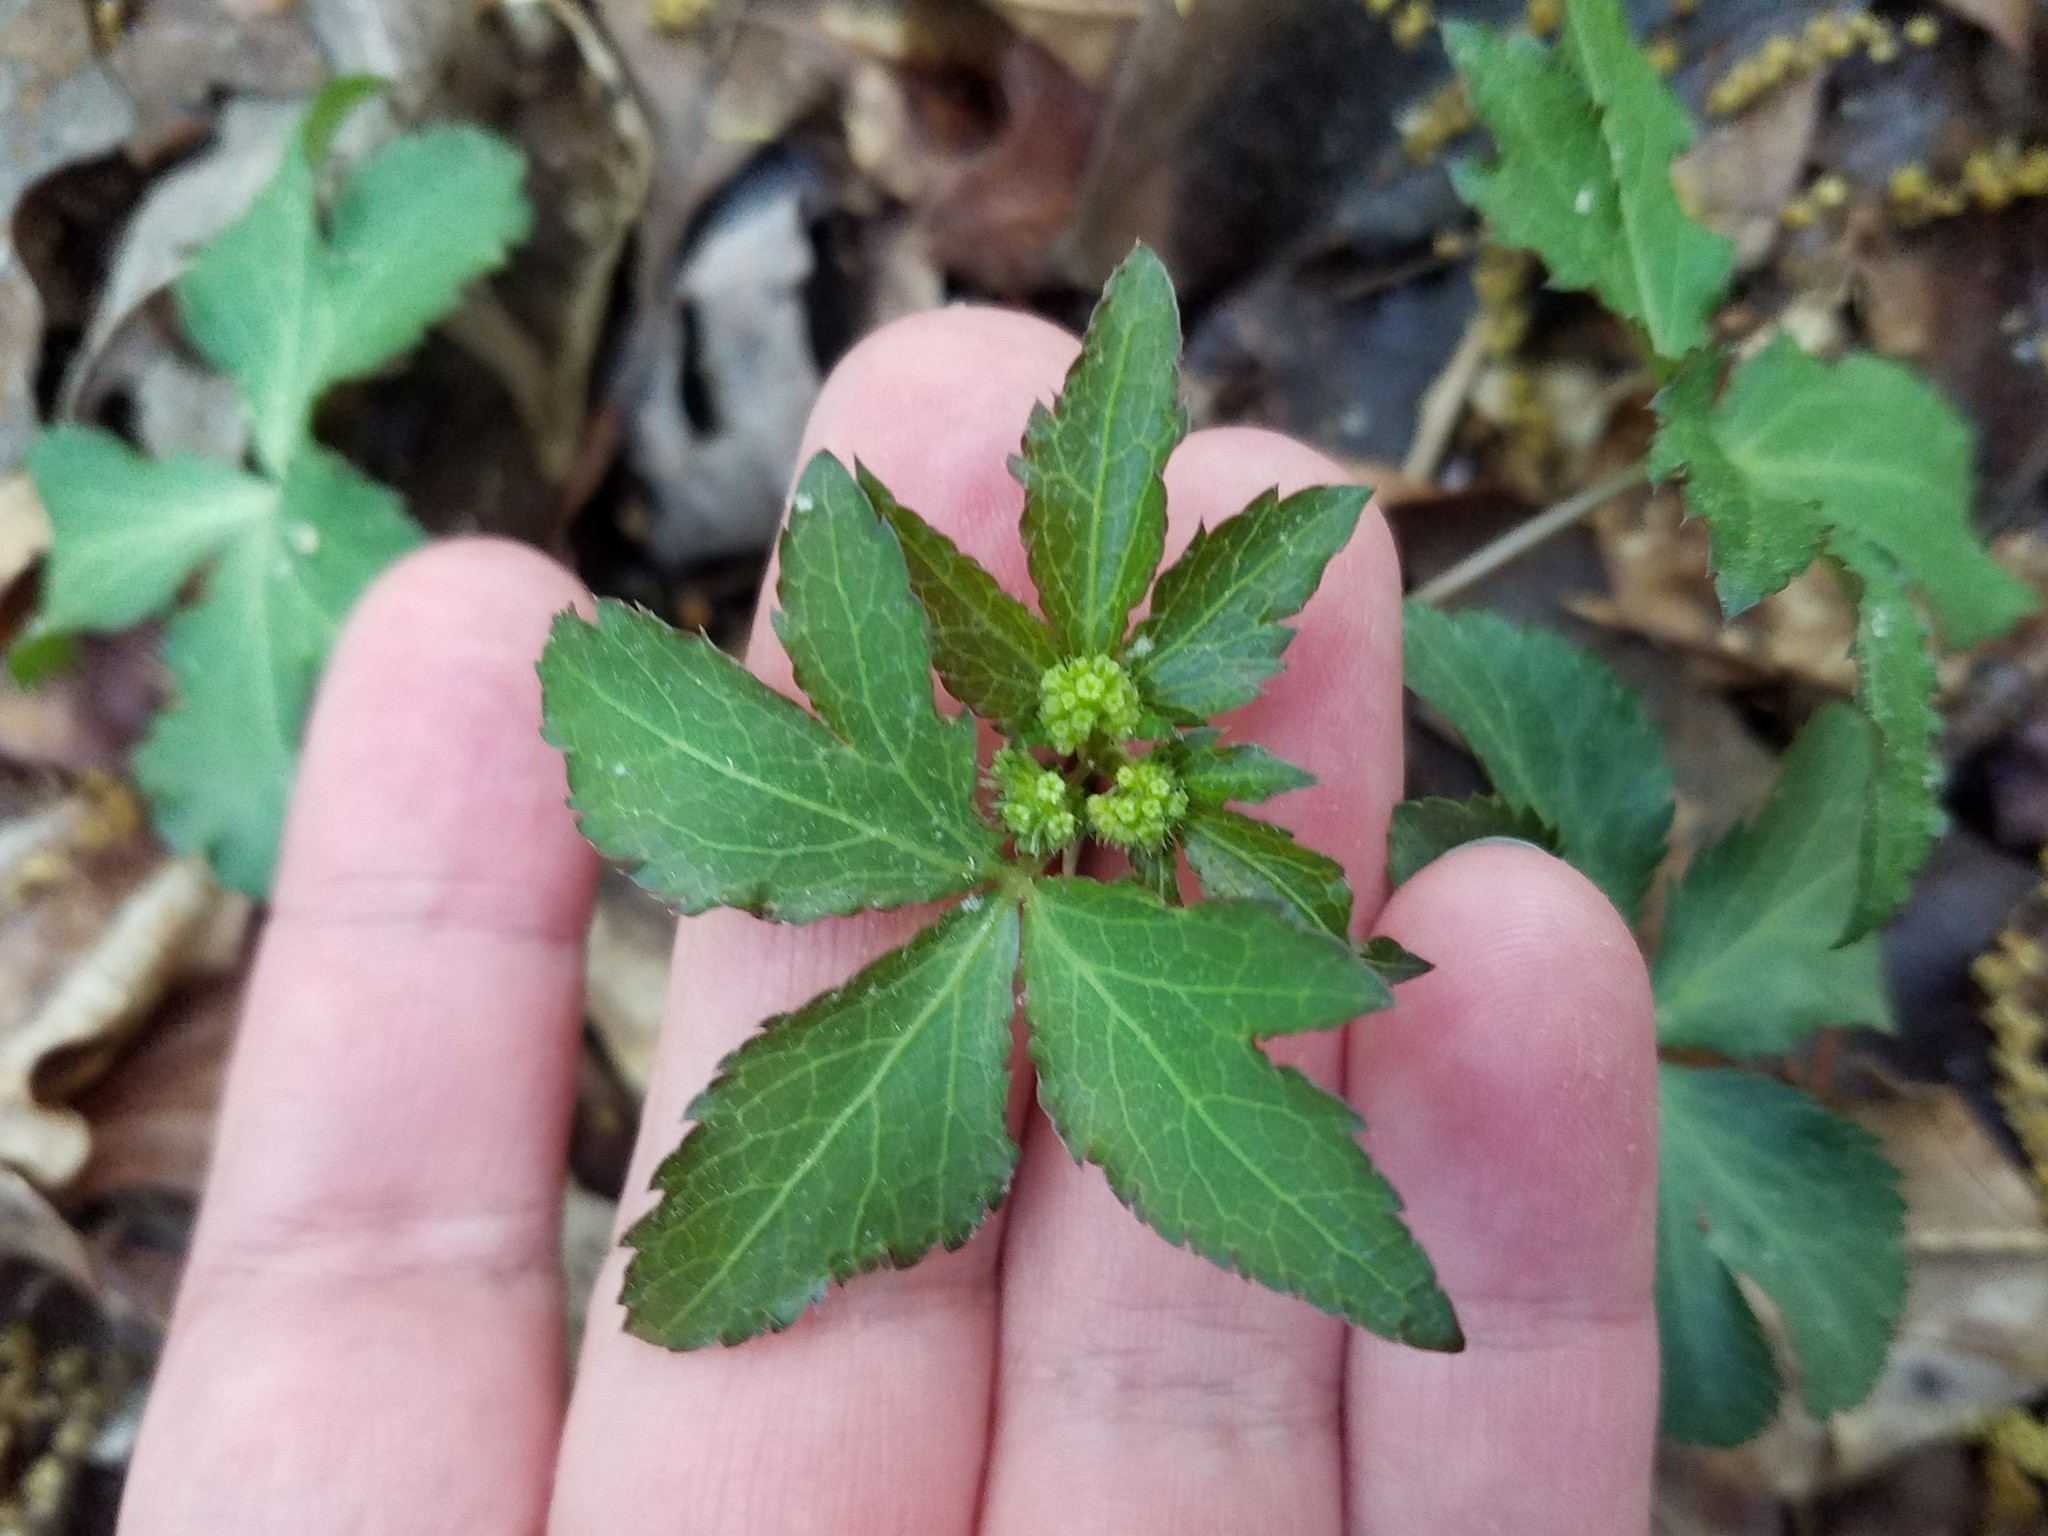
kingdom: Plantae
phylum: Tracheophyta
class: Magnoliopsida
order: Apiales
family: Apiaceae
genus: Sanicula
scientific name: Sanicula smallii
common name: Small's black snakeroot
